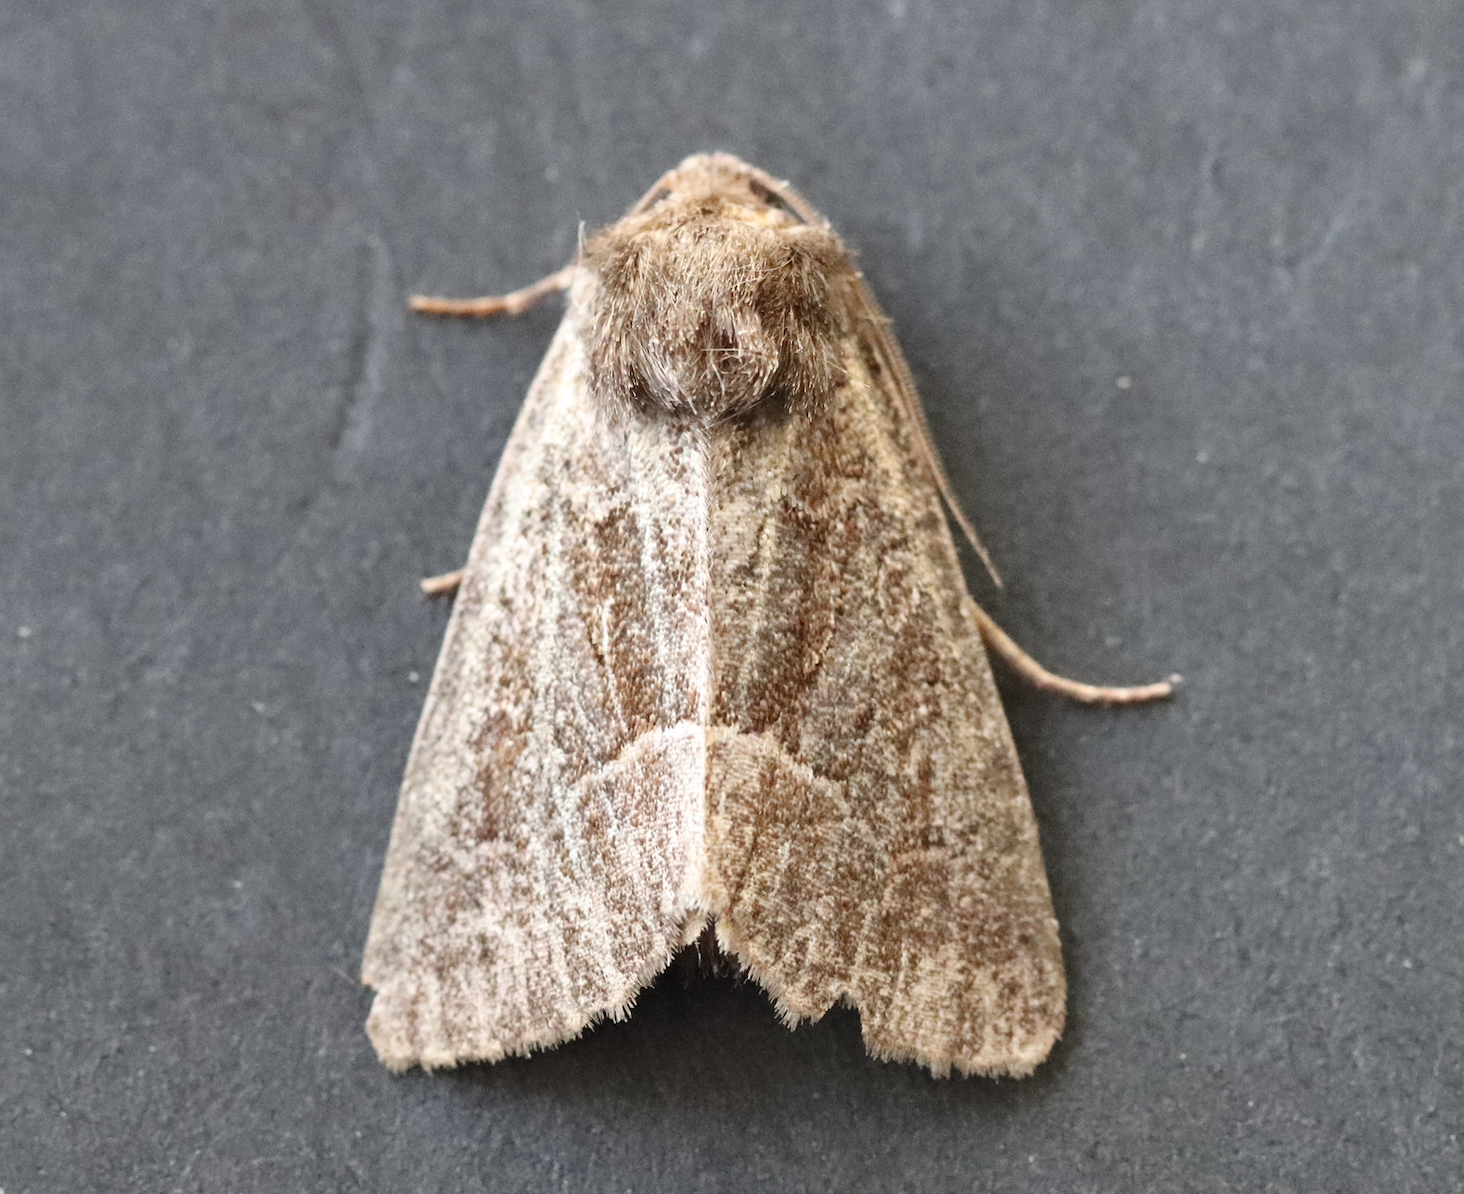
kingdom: Animalia
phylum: Arthropoda
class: Insecta
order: Lepidoptera
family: Noctuidae
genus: Thalpophila
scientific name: Thalpophila matura
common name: Straw underwing
